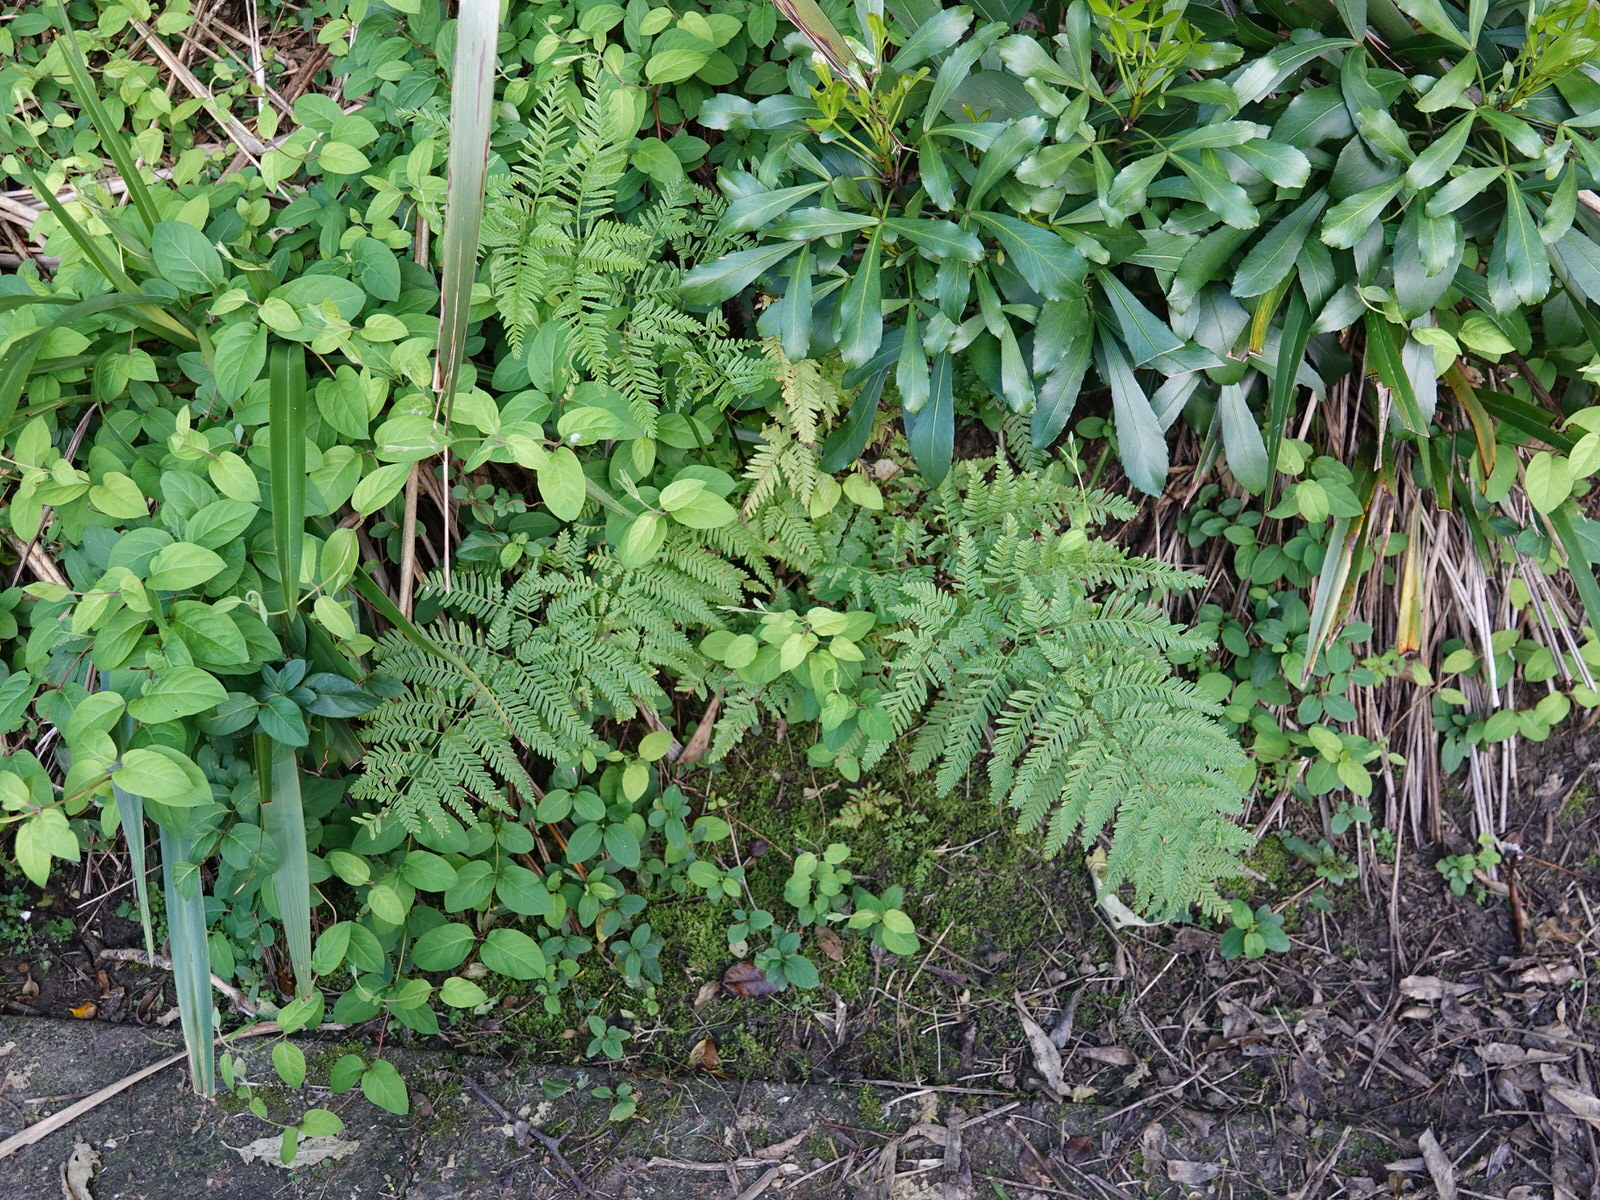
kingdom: Plantae
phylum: Tracheophyta
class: Polypodiopsida
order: Polypodiales
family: Pteridaceae
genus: Pteris
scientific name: Pteris tremula
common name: Australian brake
